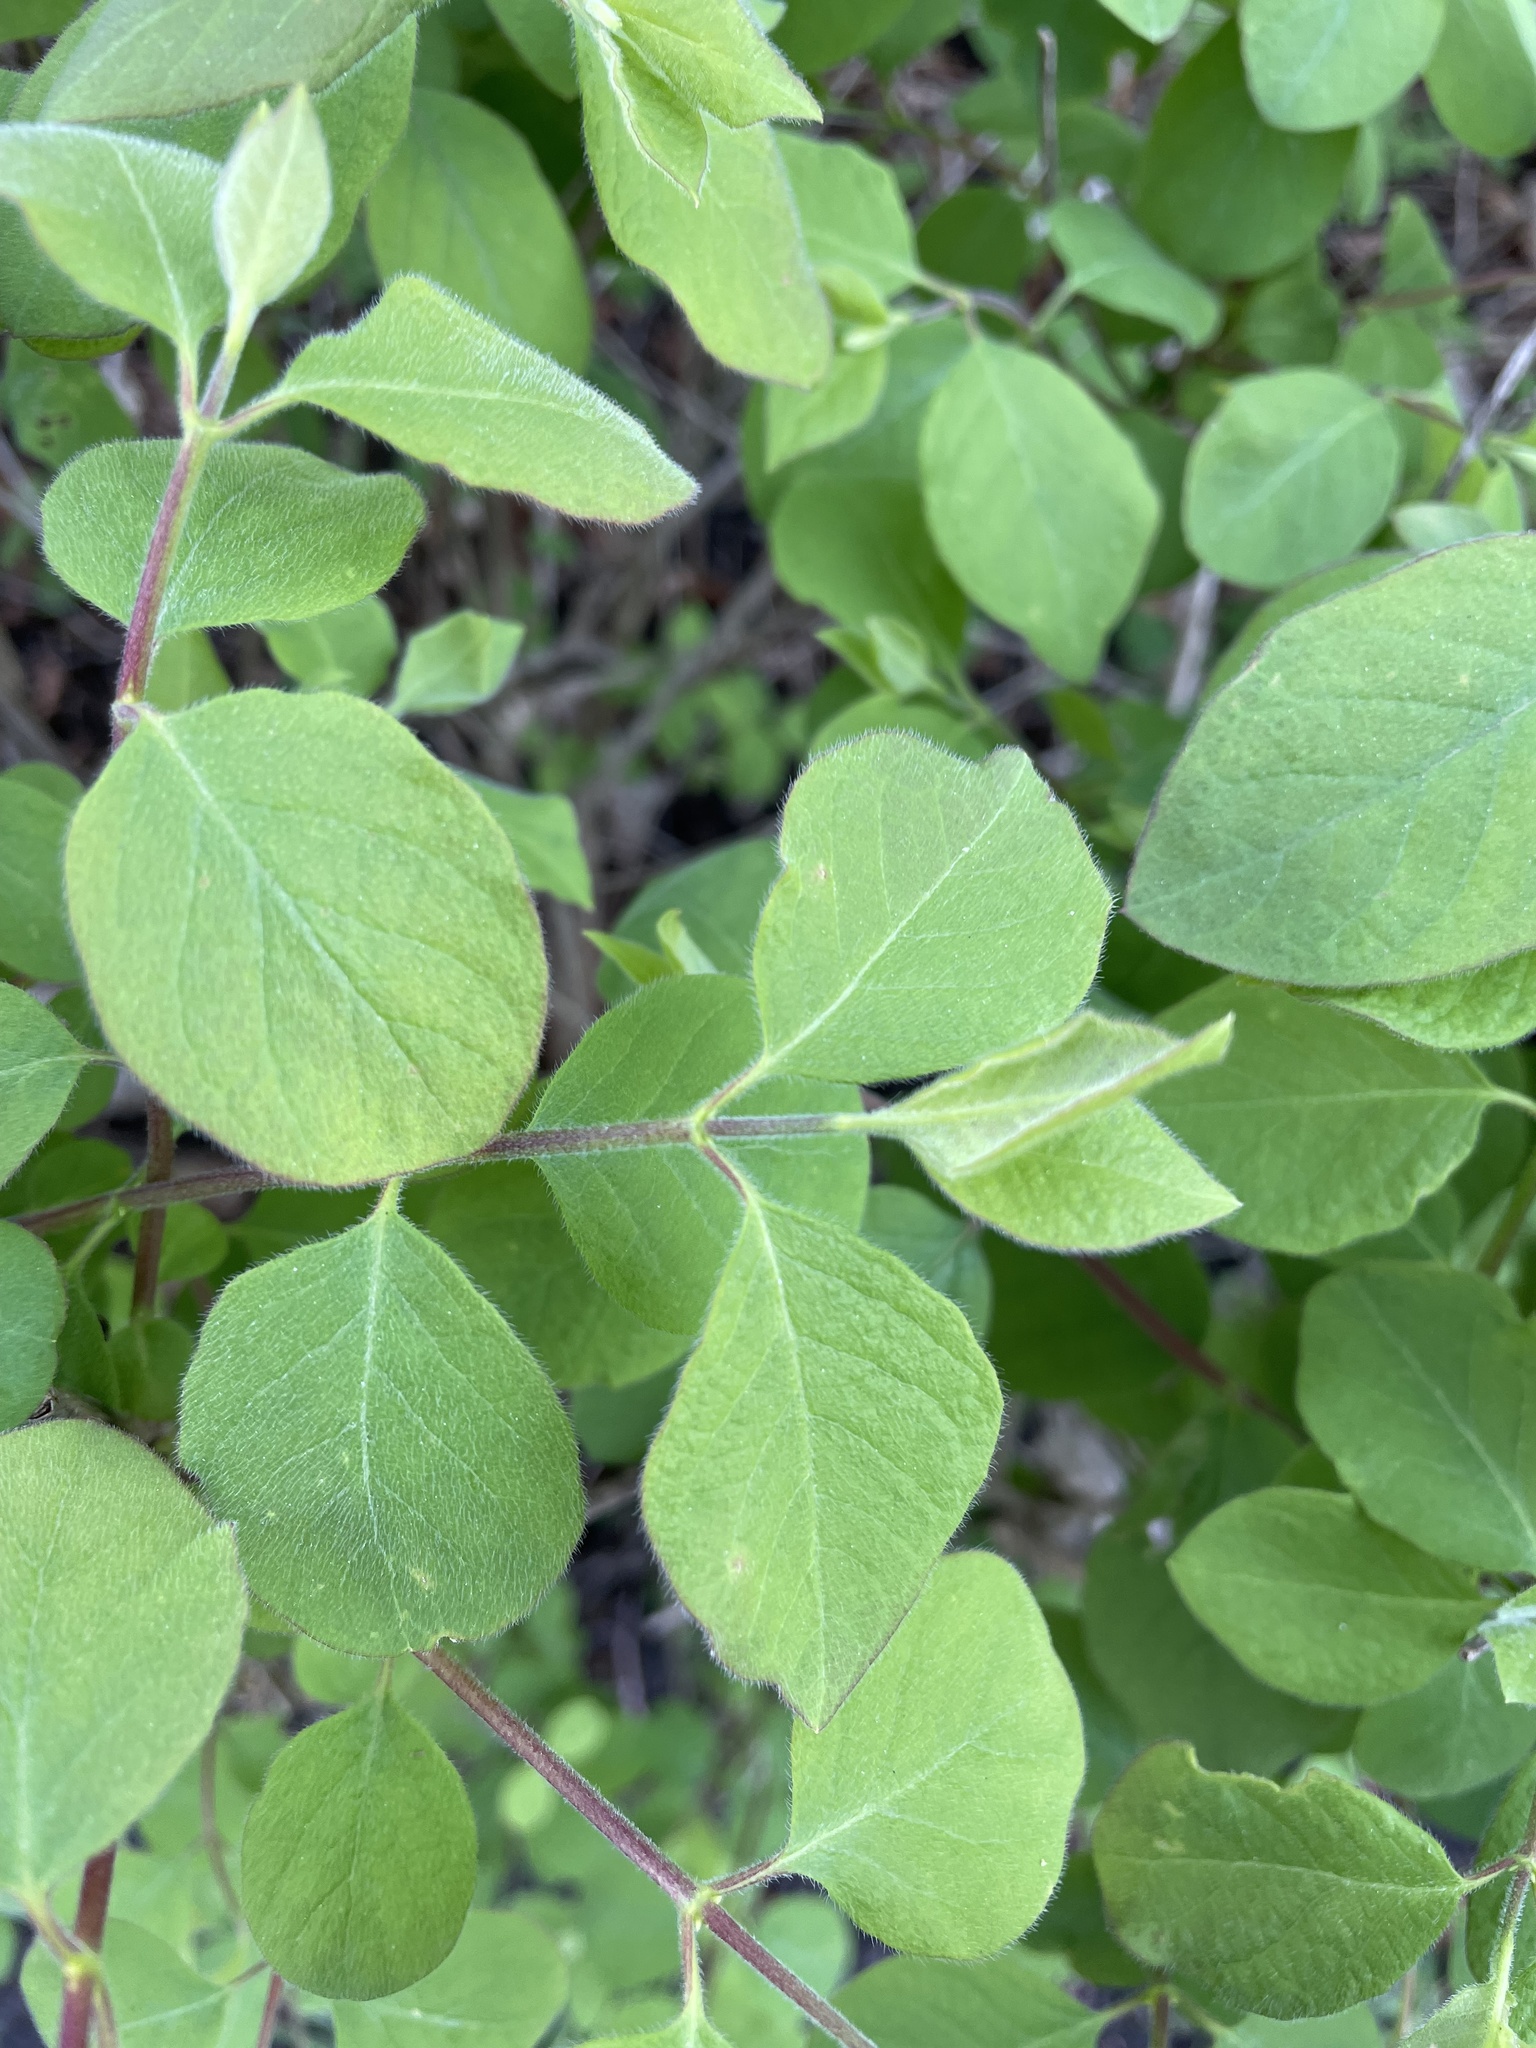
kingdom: Plantae
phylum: Tracheophyta
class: Magnoliopsida
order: Dipsacales
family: Caprifoliaceae
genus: Lonicera
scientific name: Lonicera xylosteum
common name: Fly honeysuckle
